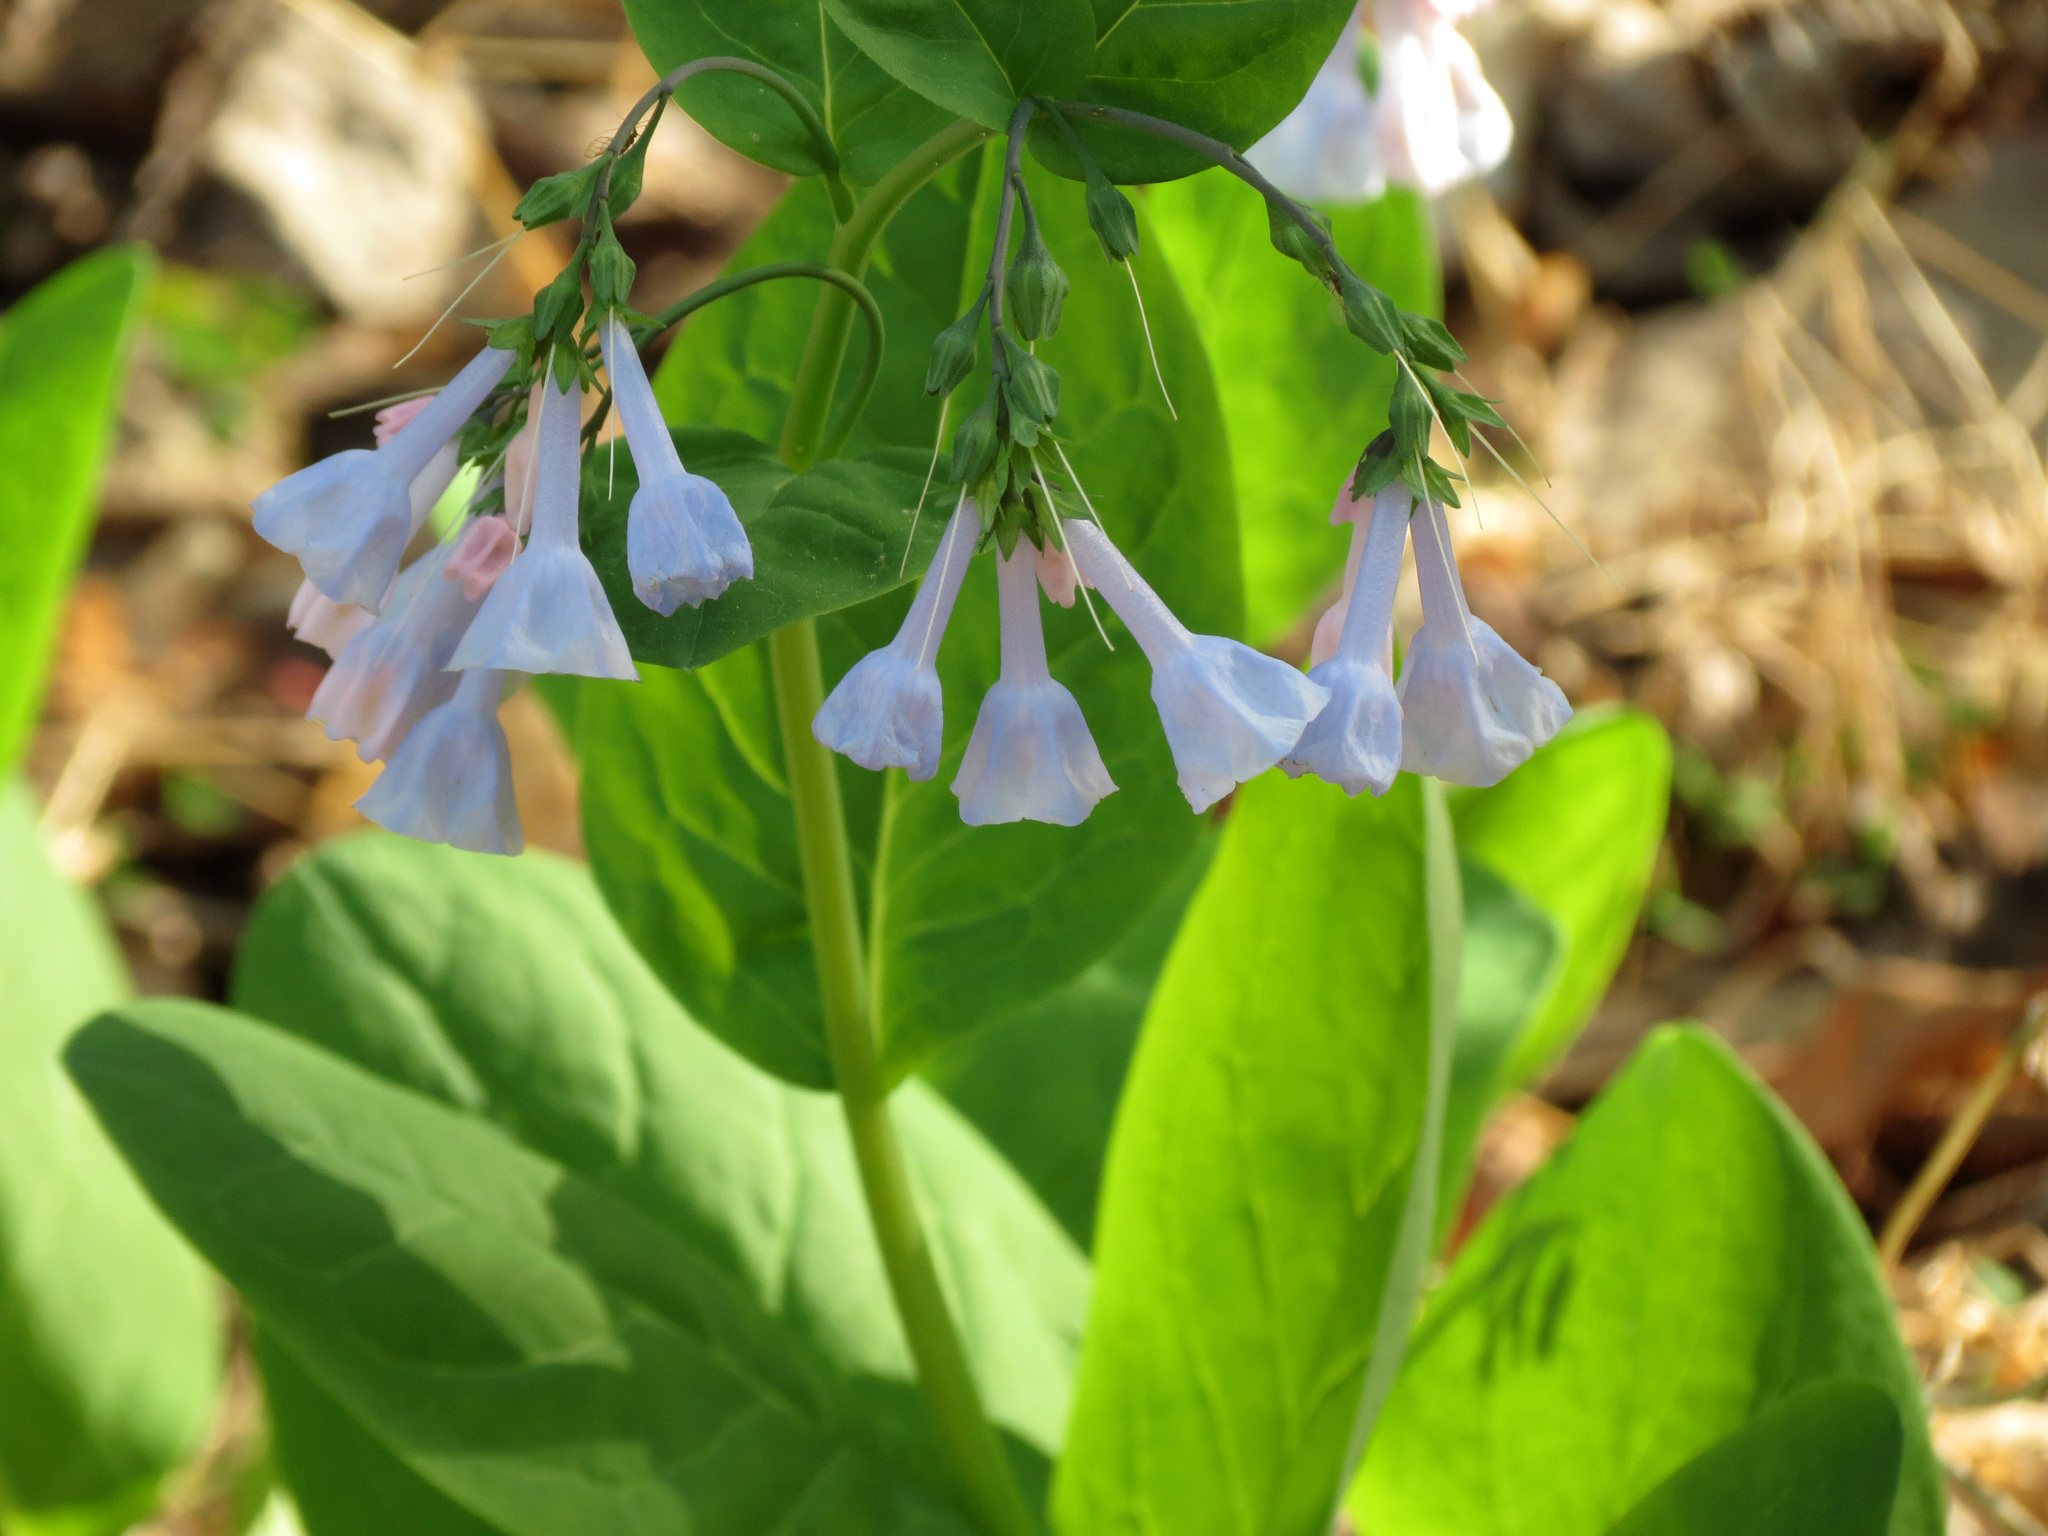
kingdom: Plantae
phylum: Tracheophyta
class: Magnoliopsida
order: Boraginales
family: Boraginaceae
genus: Mertensia
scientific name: Mertensia virginica
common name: Virginia bluebells
